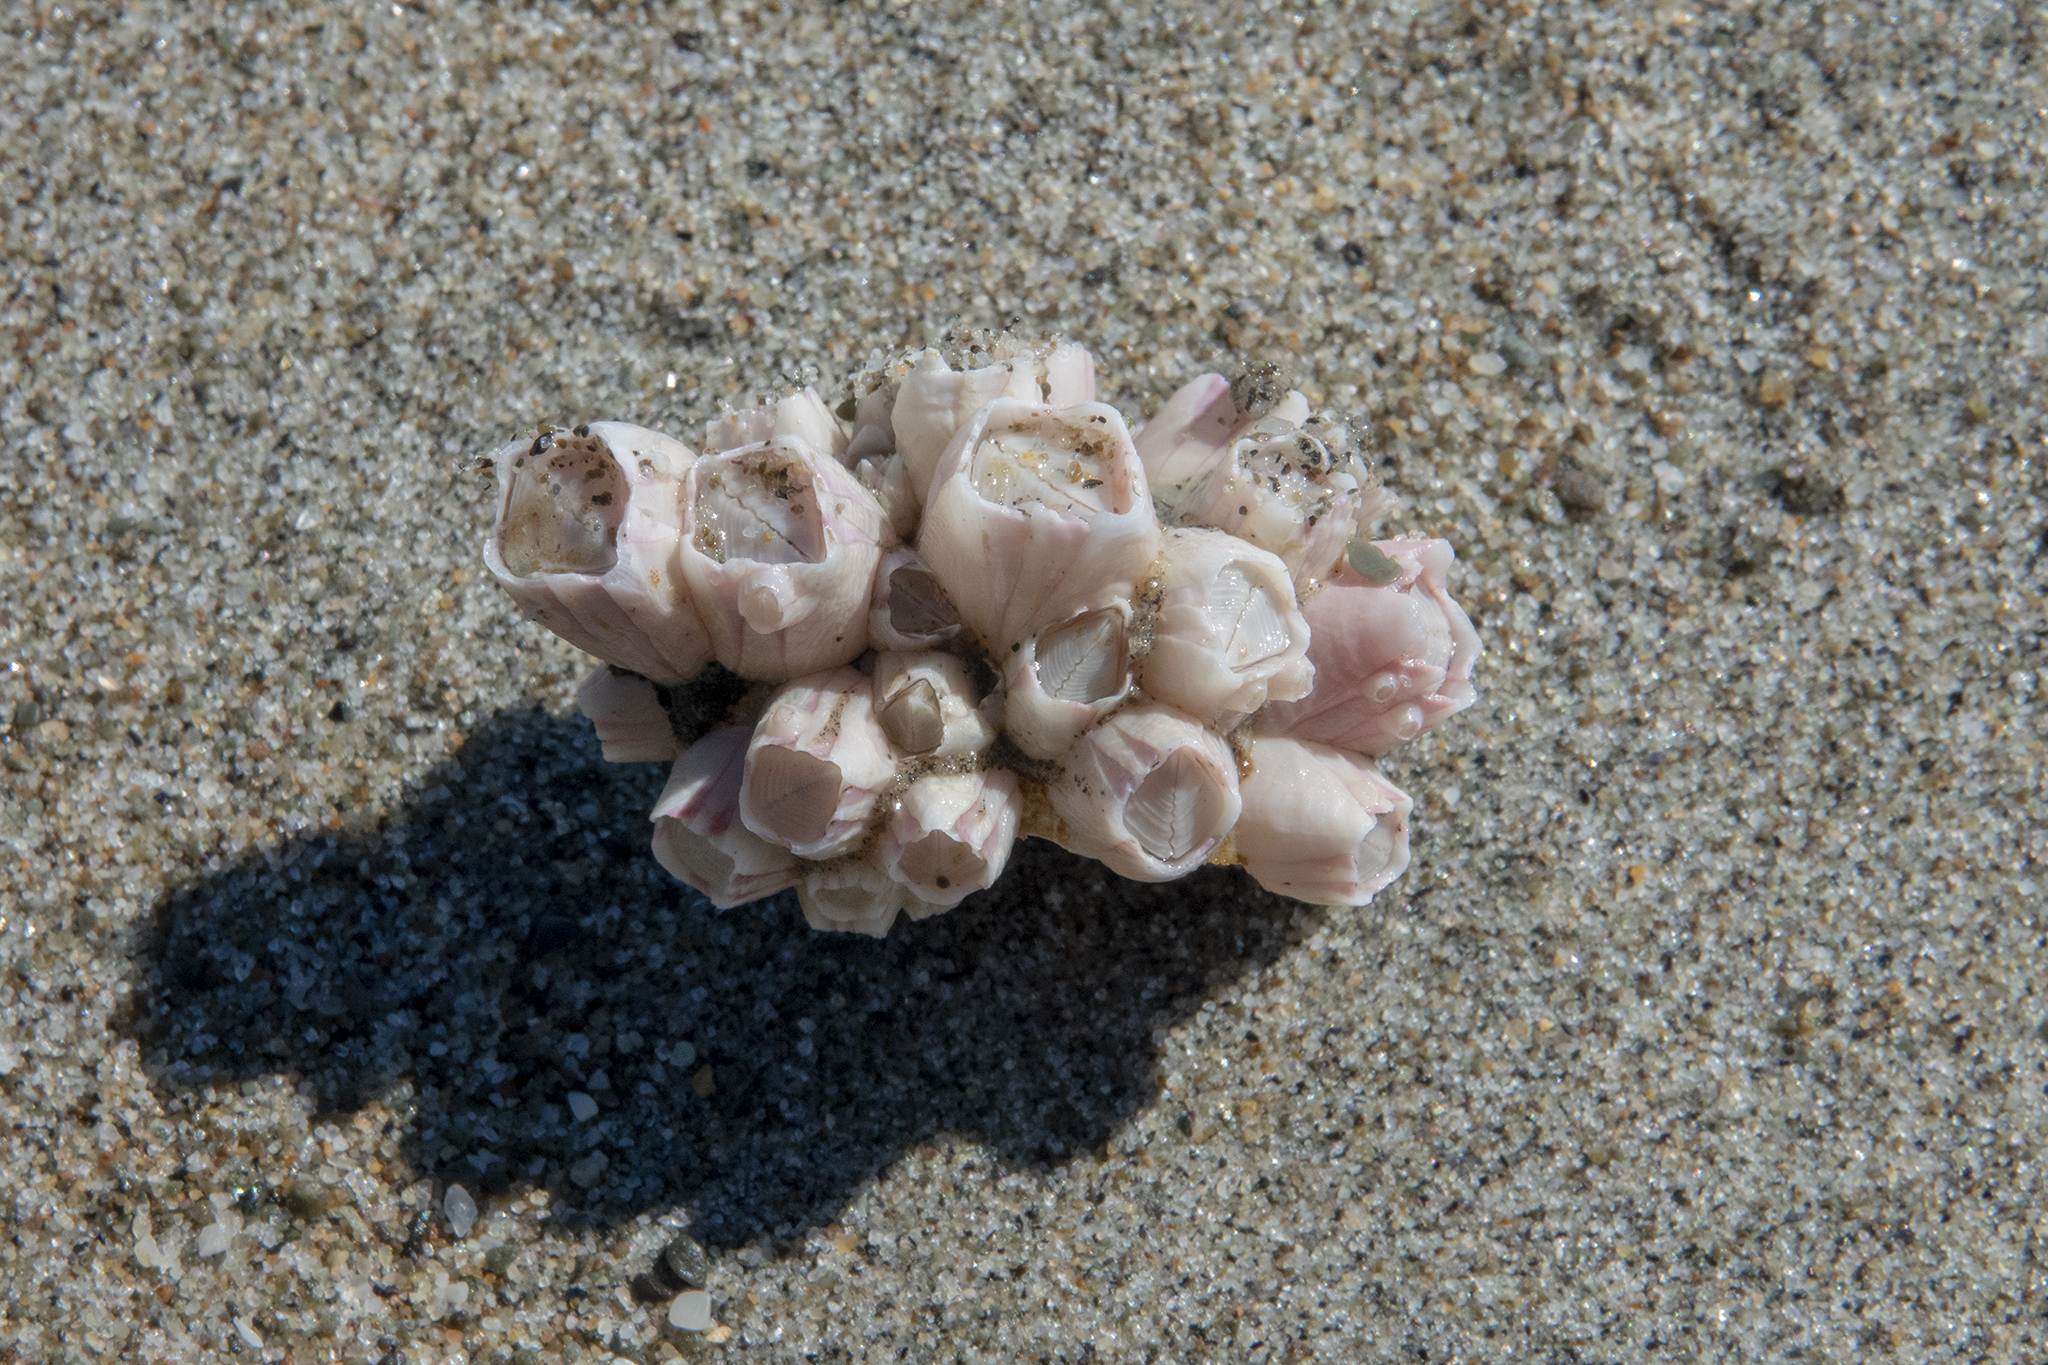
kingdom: Animalia
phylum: Arthropoda
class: Maxillopoda
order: Sessilia
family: Balanidae
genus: Notomegabalanus
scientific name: Notomegabalanus decorus
